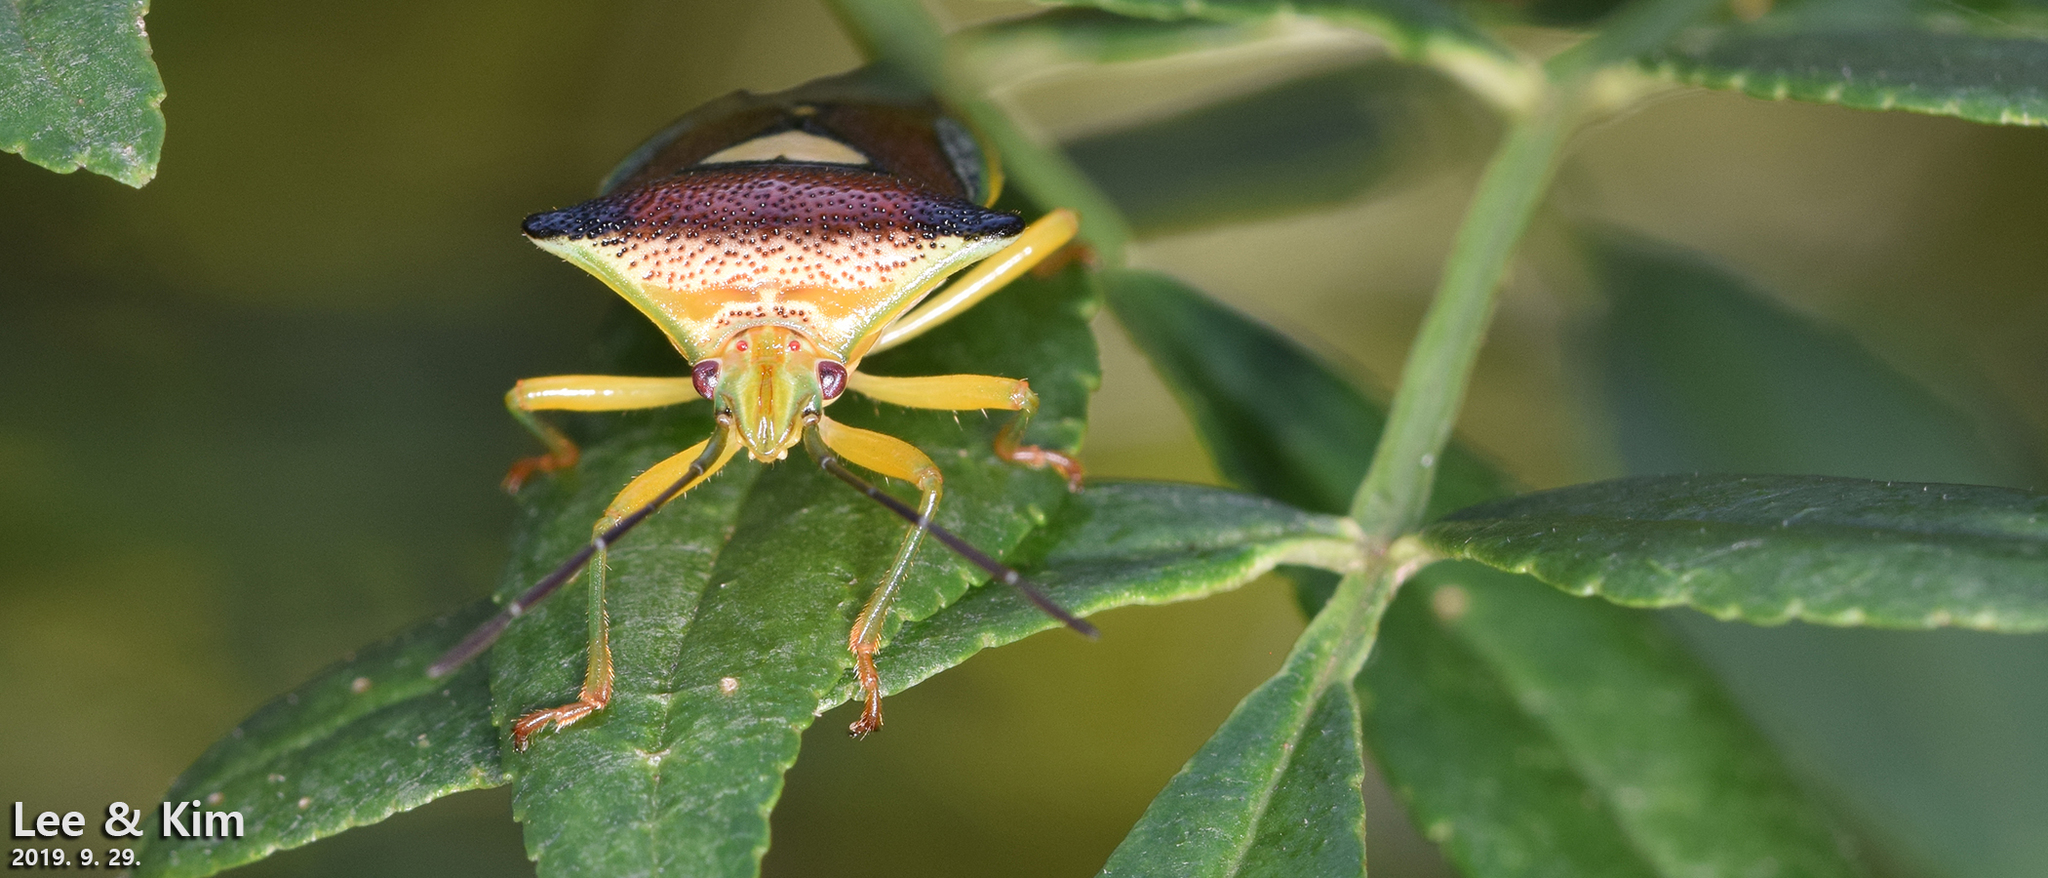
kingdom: Animalia
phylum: Arthropoda
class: Insecta
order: Hemiptera
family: Acanthosomatidae
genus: Sastragala
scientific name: Sastragala esakii
